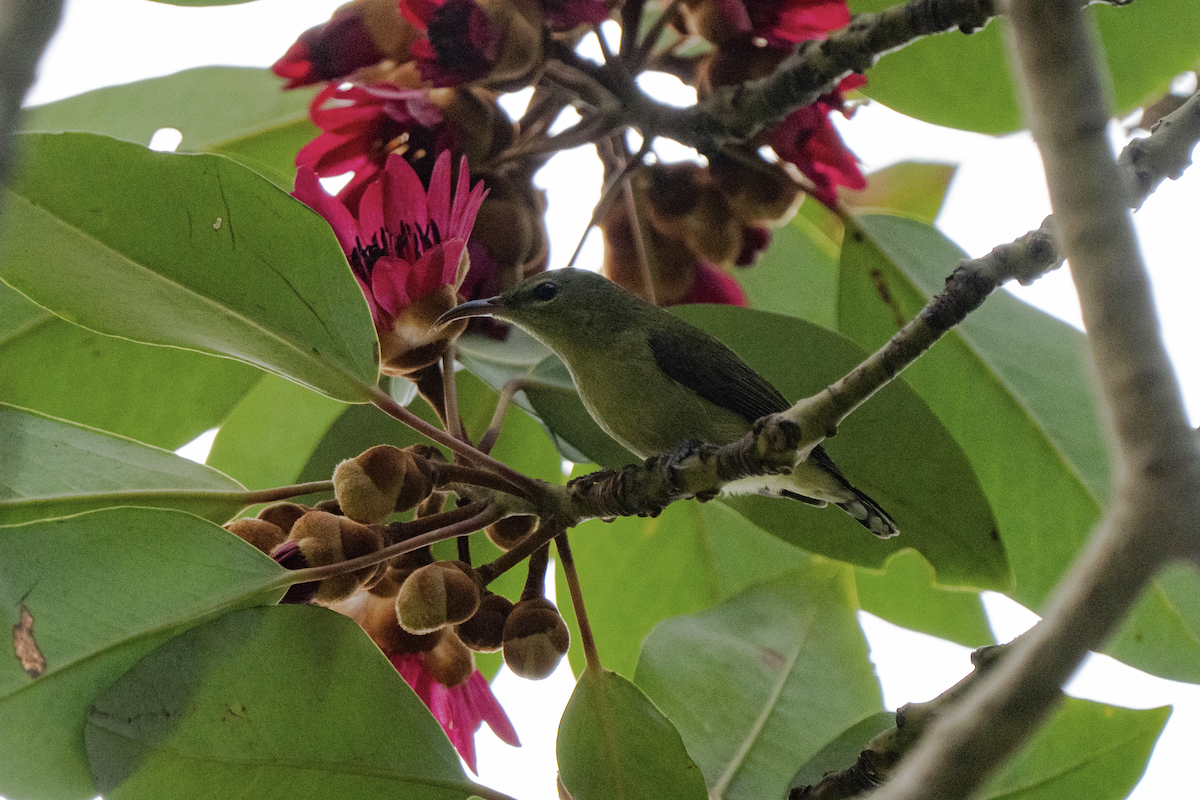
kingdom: Animalia
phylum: Chordata
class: Aves
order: Passeriformes
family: Nectariniidae
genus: Aethopyga
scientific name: Aethopyga christinae
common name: Fork-tailed sunbird
